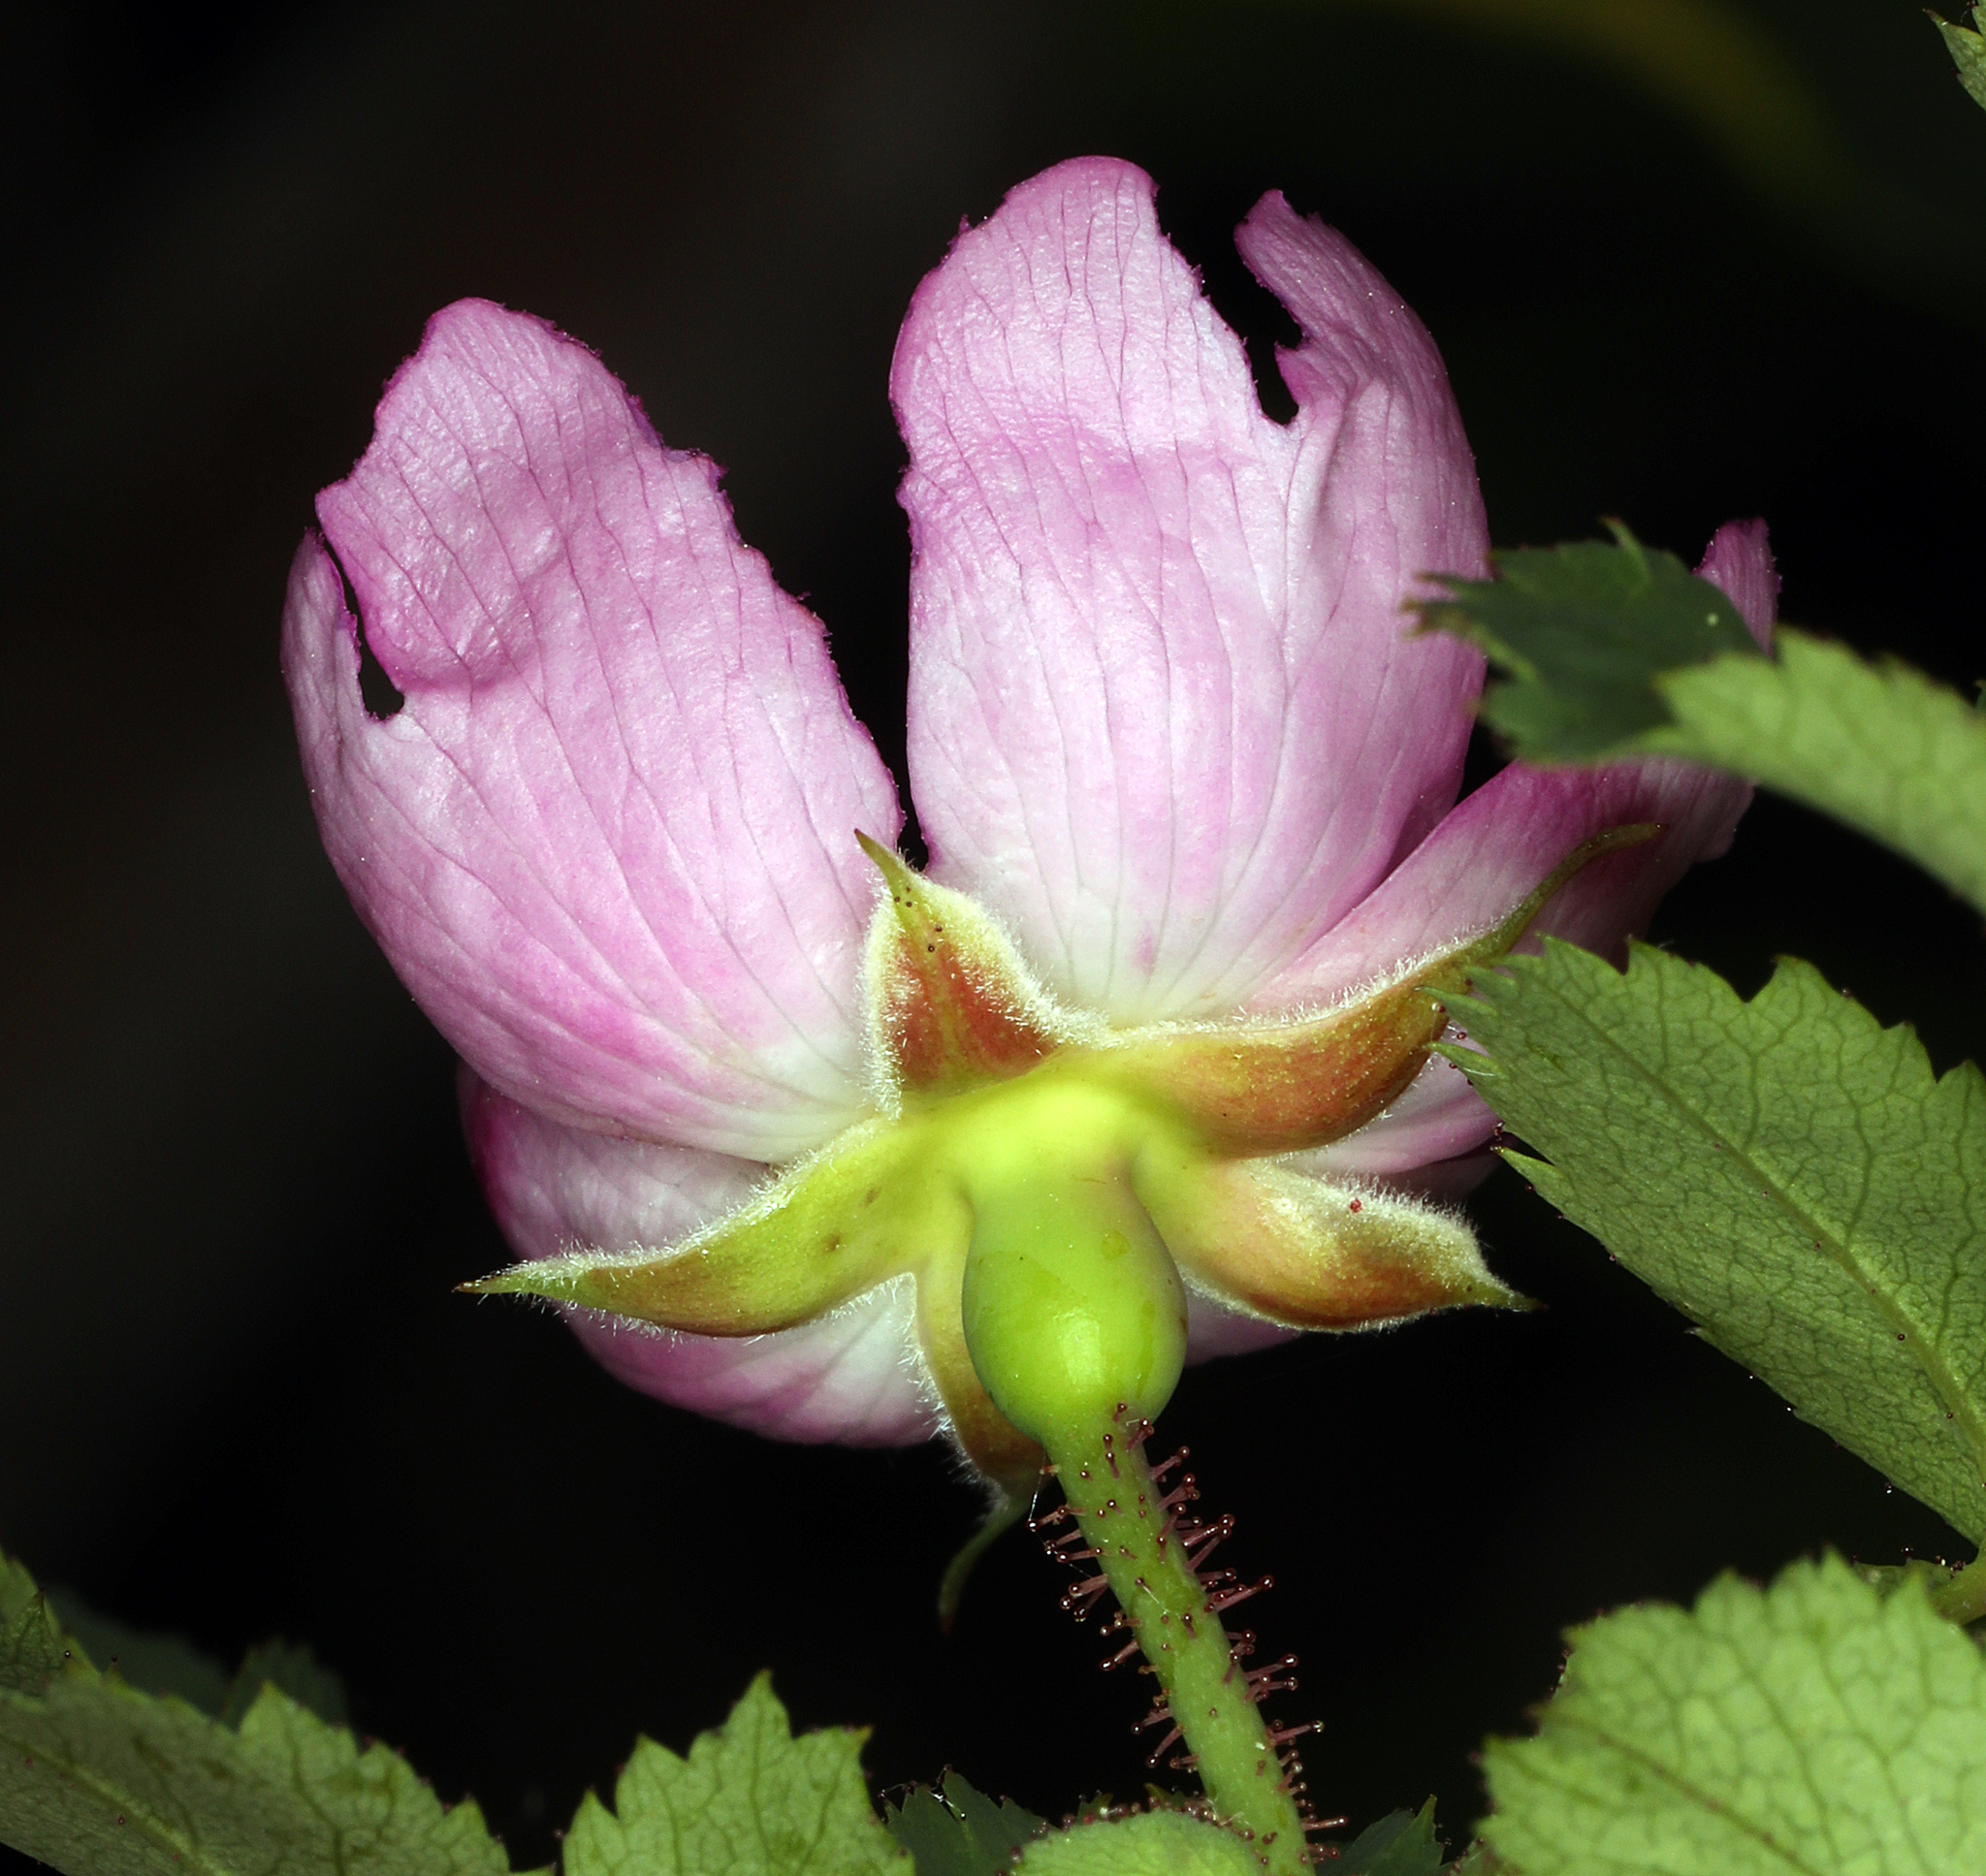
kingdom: Plantae
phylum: Tracheophyta
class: Magnoliopsida
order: Rosales
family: Rosaceae
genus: Rosa
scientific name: Rosa gymnocarpa
